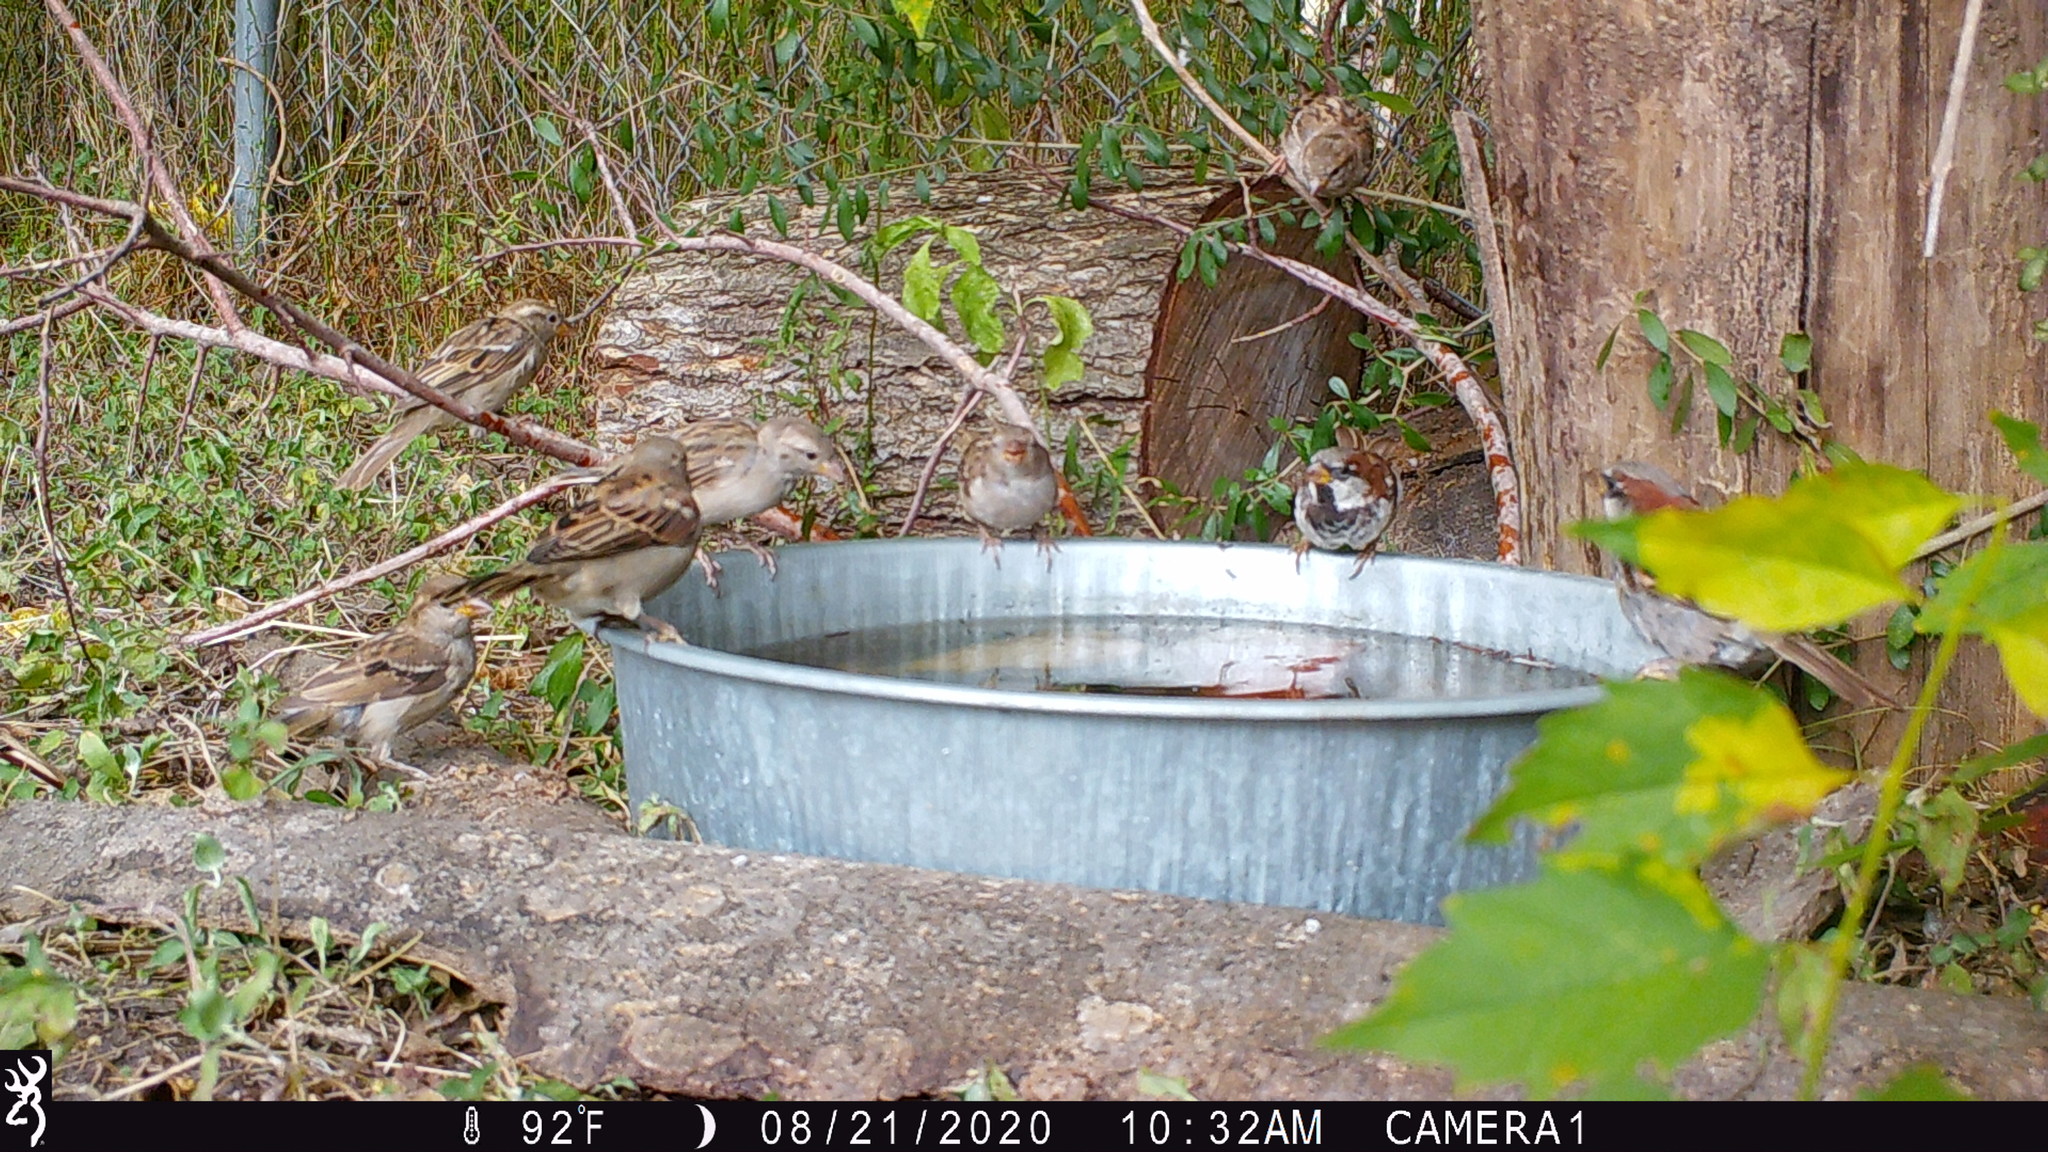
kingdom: Animalia
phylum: Chordata
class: Aves
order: Passeriformes
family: Passeridae
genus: Passer
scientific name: Passer domesticus
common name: House sparrow
